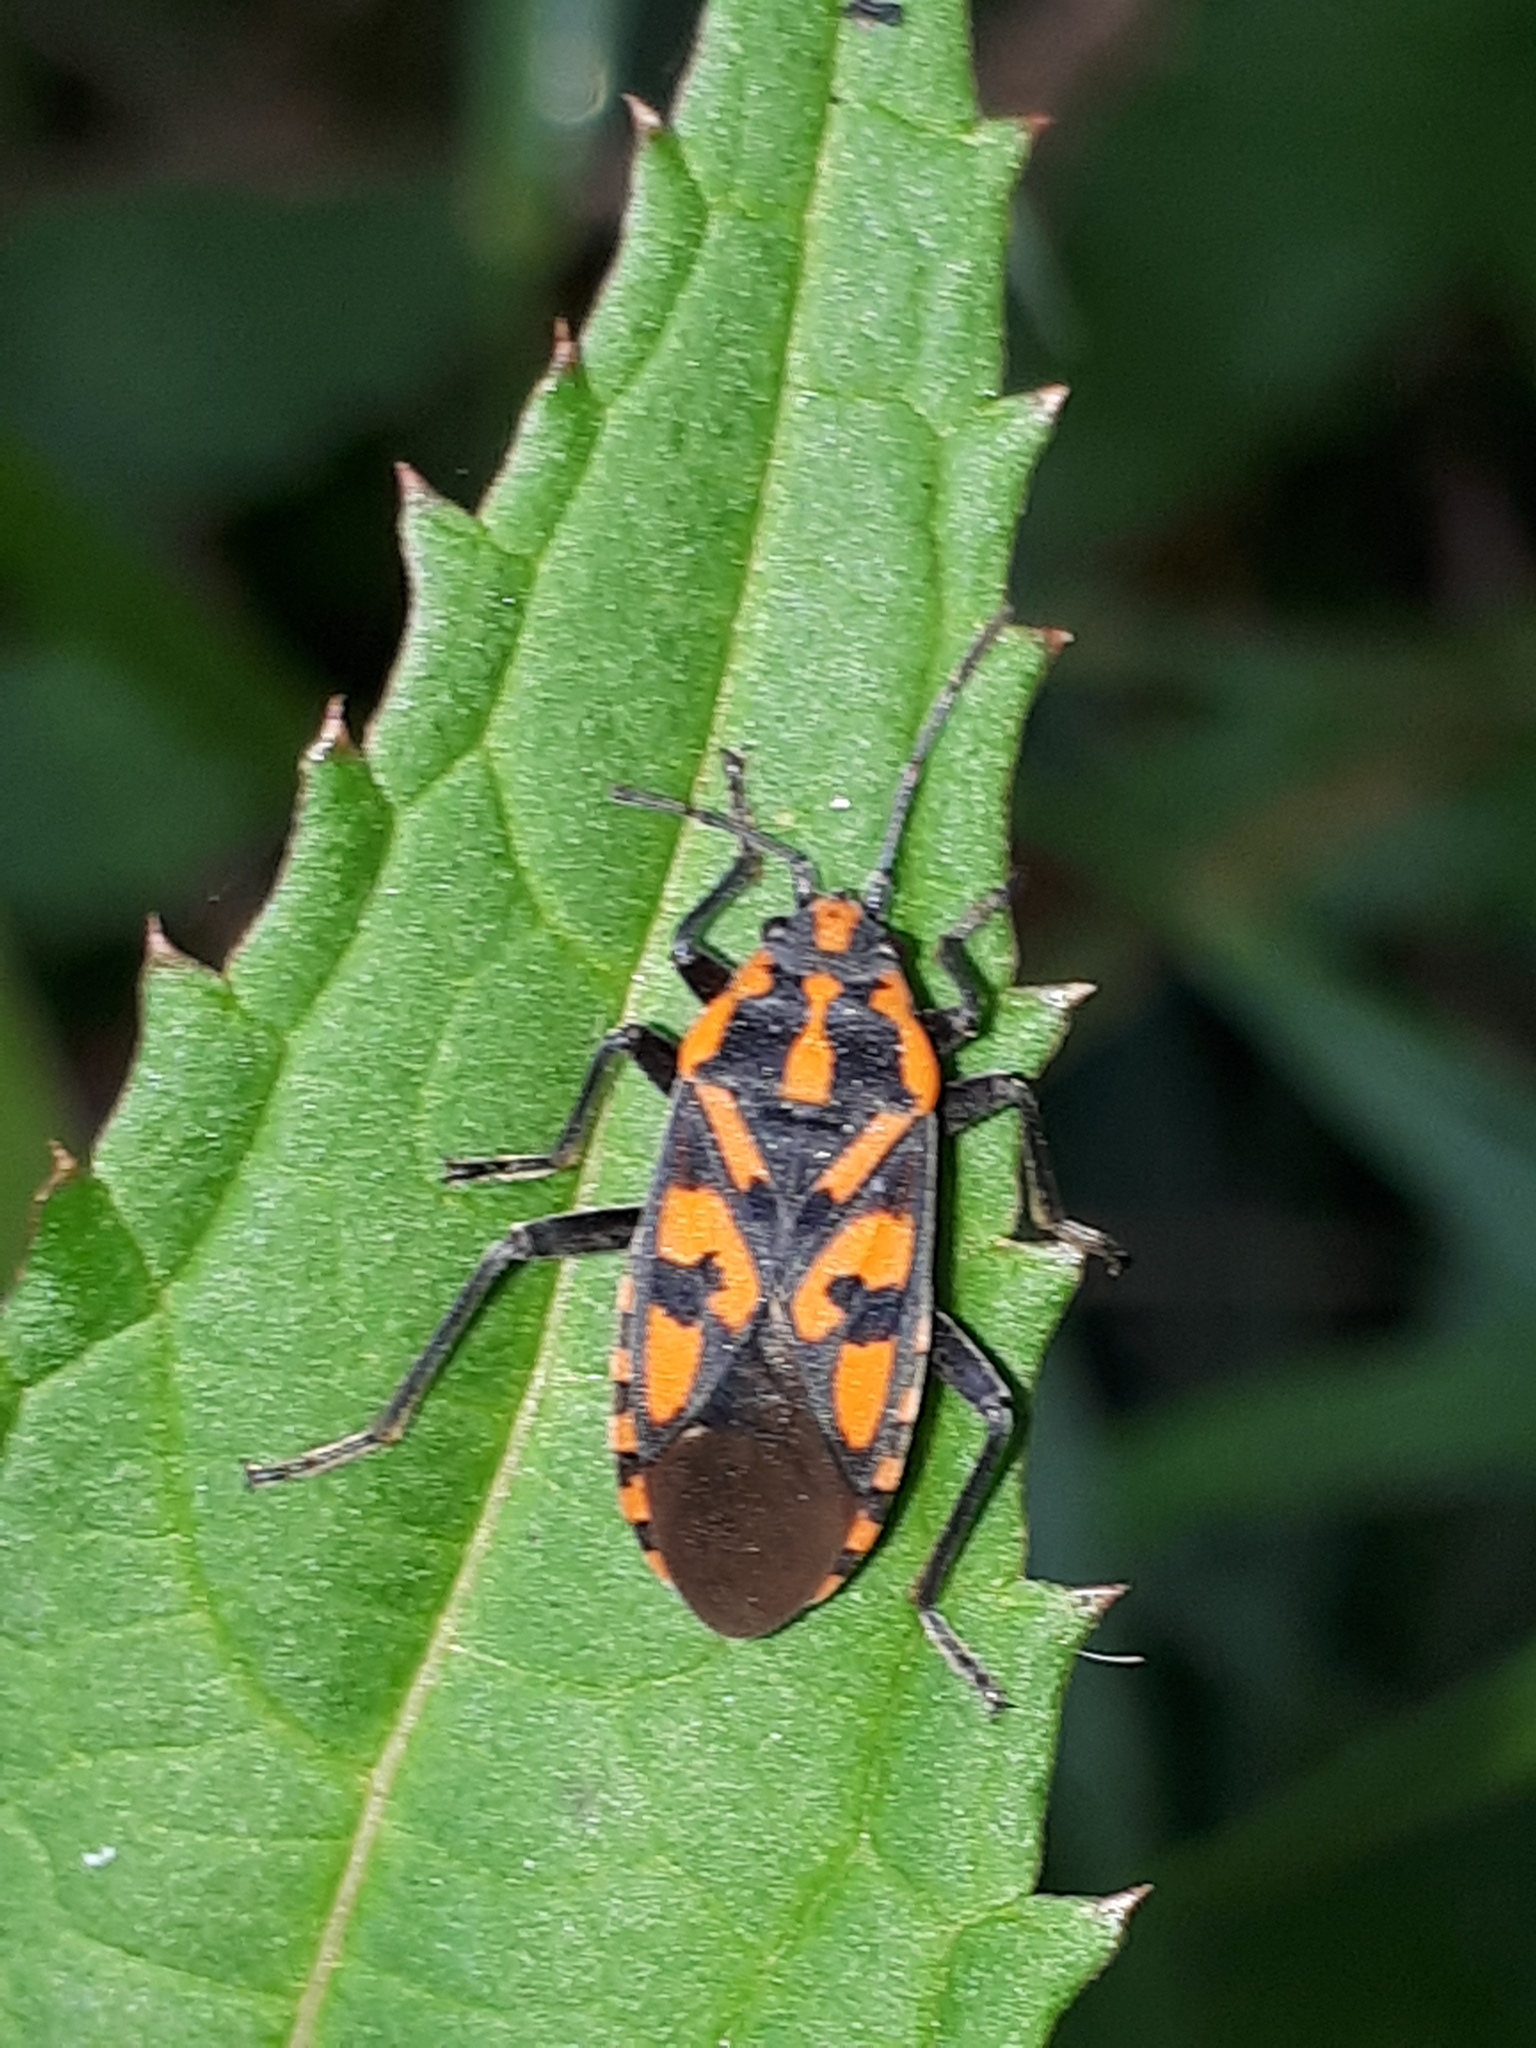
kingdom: Animalia
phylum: Arthropoda
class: Insecta
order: Hemiptera
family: Lygaeidae
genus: Spilostethus
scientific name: Spilostethus saxatilis
